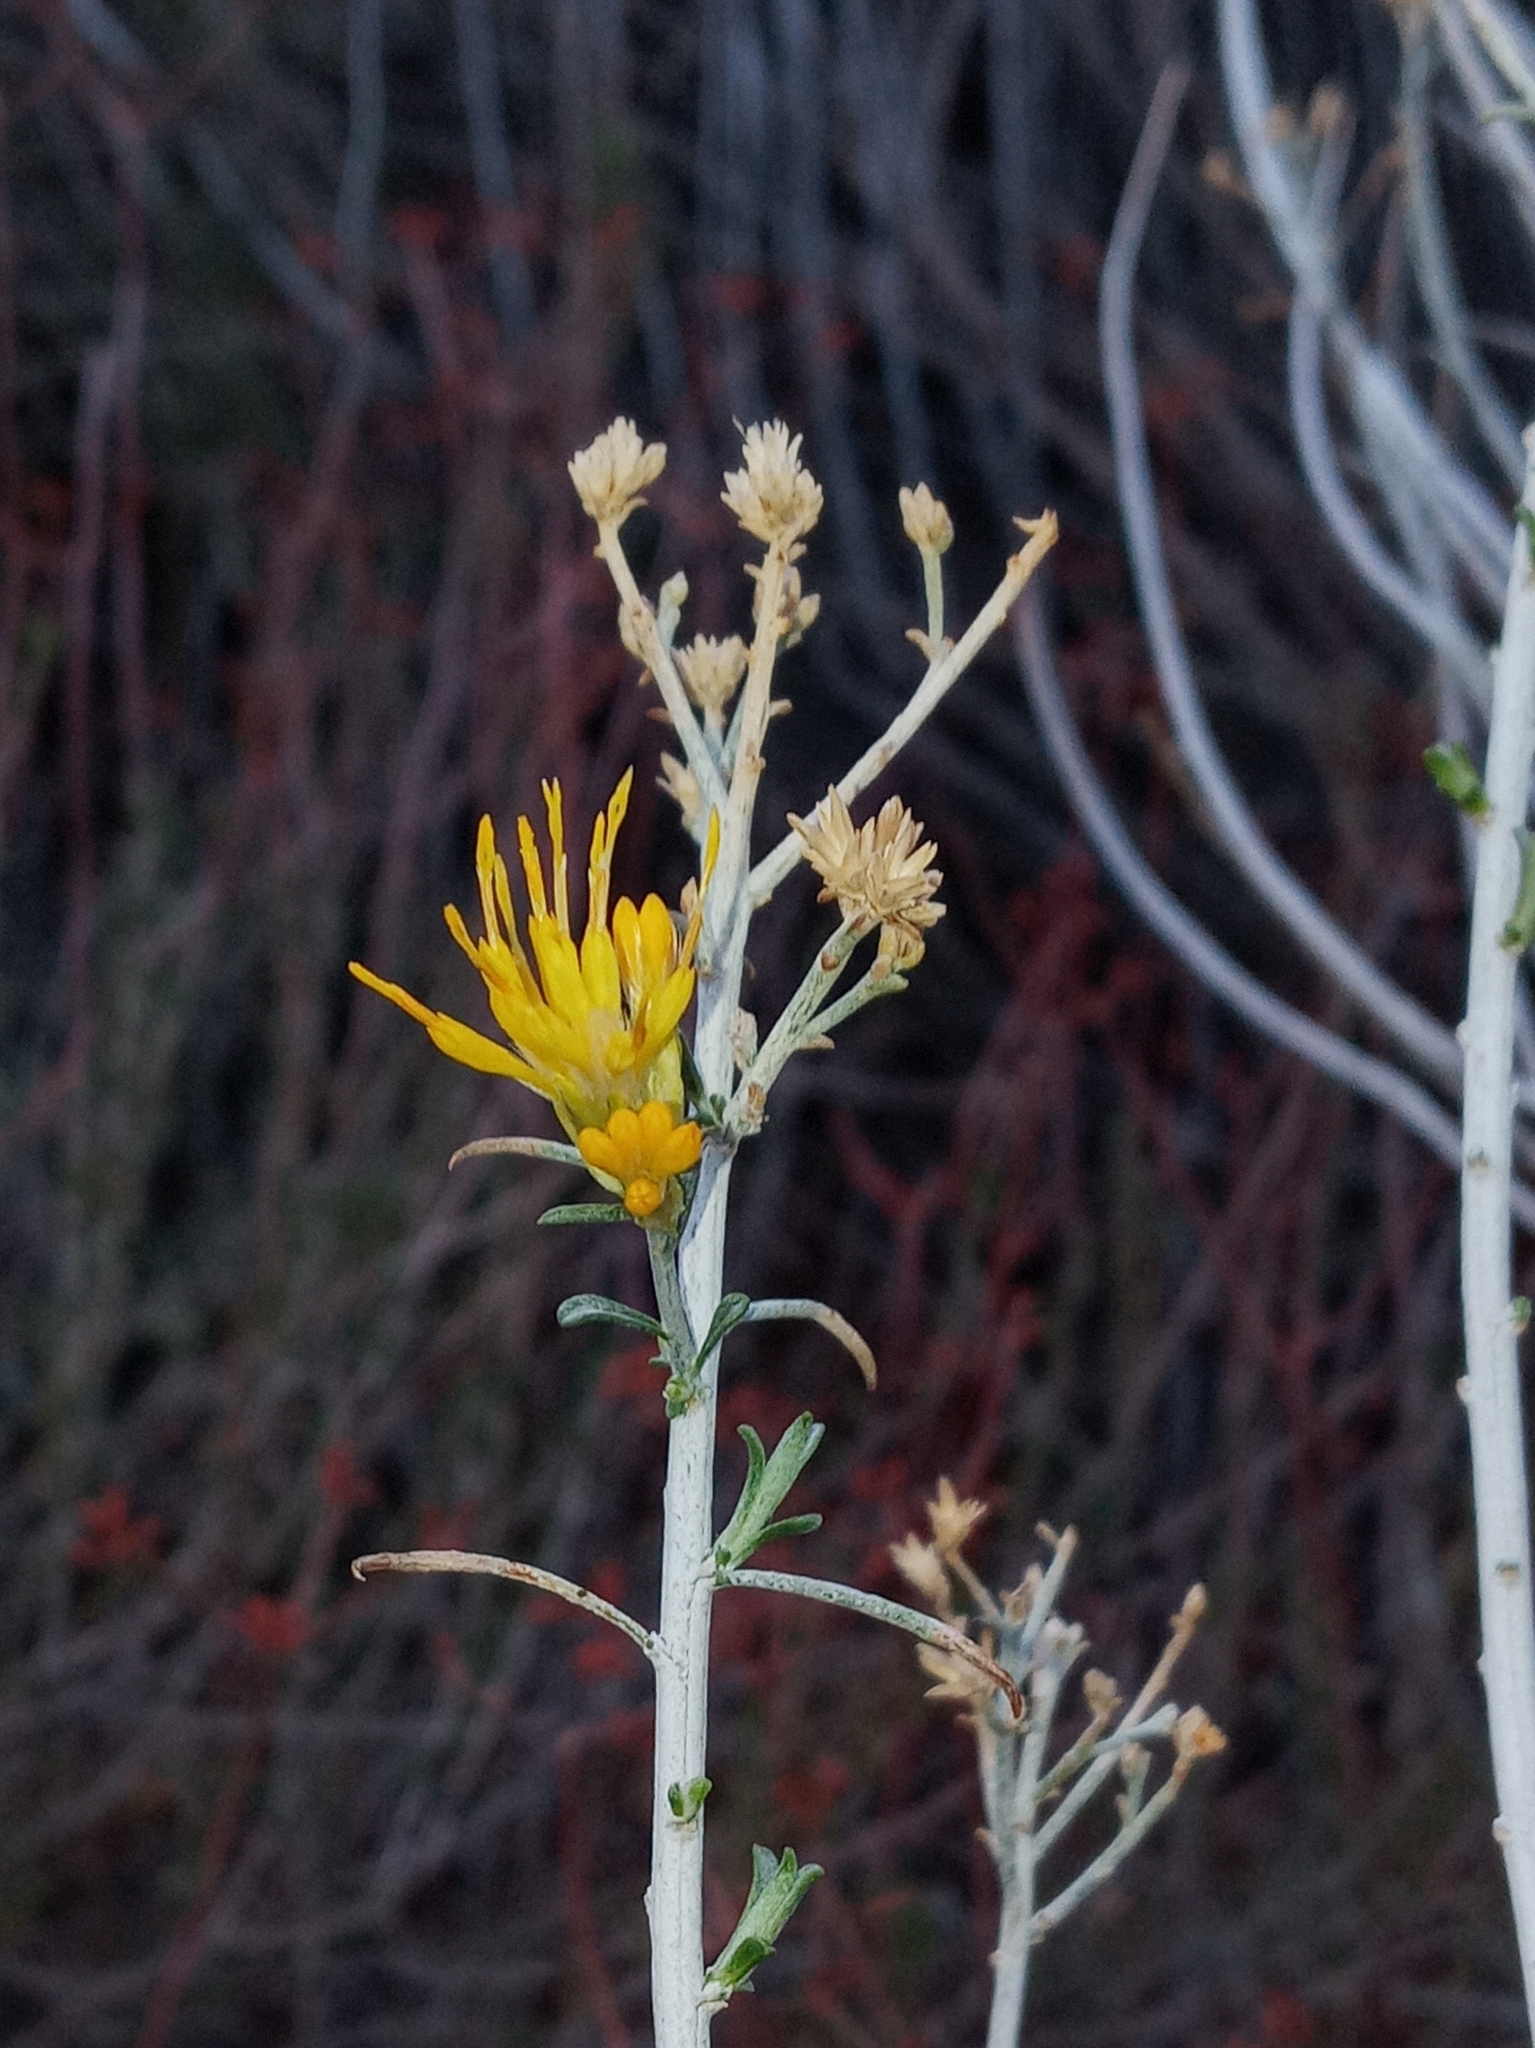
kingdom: Plantae
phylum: Tracheophyta
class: Magnoliopsida
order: Asterales
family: Asteraceae
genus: Ericameria
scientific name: Ericameria nauseosa
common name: Rubber rabbitbrush
